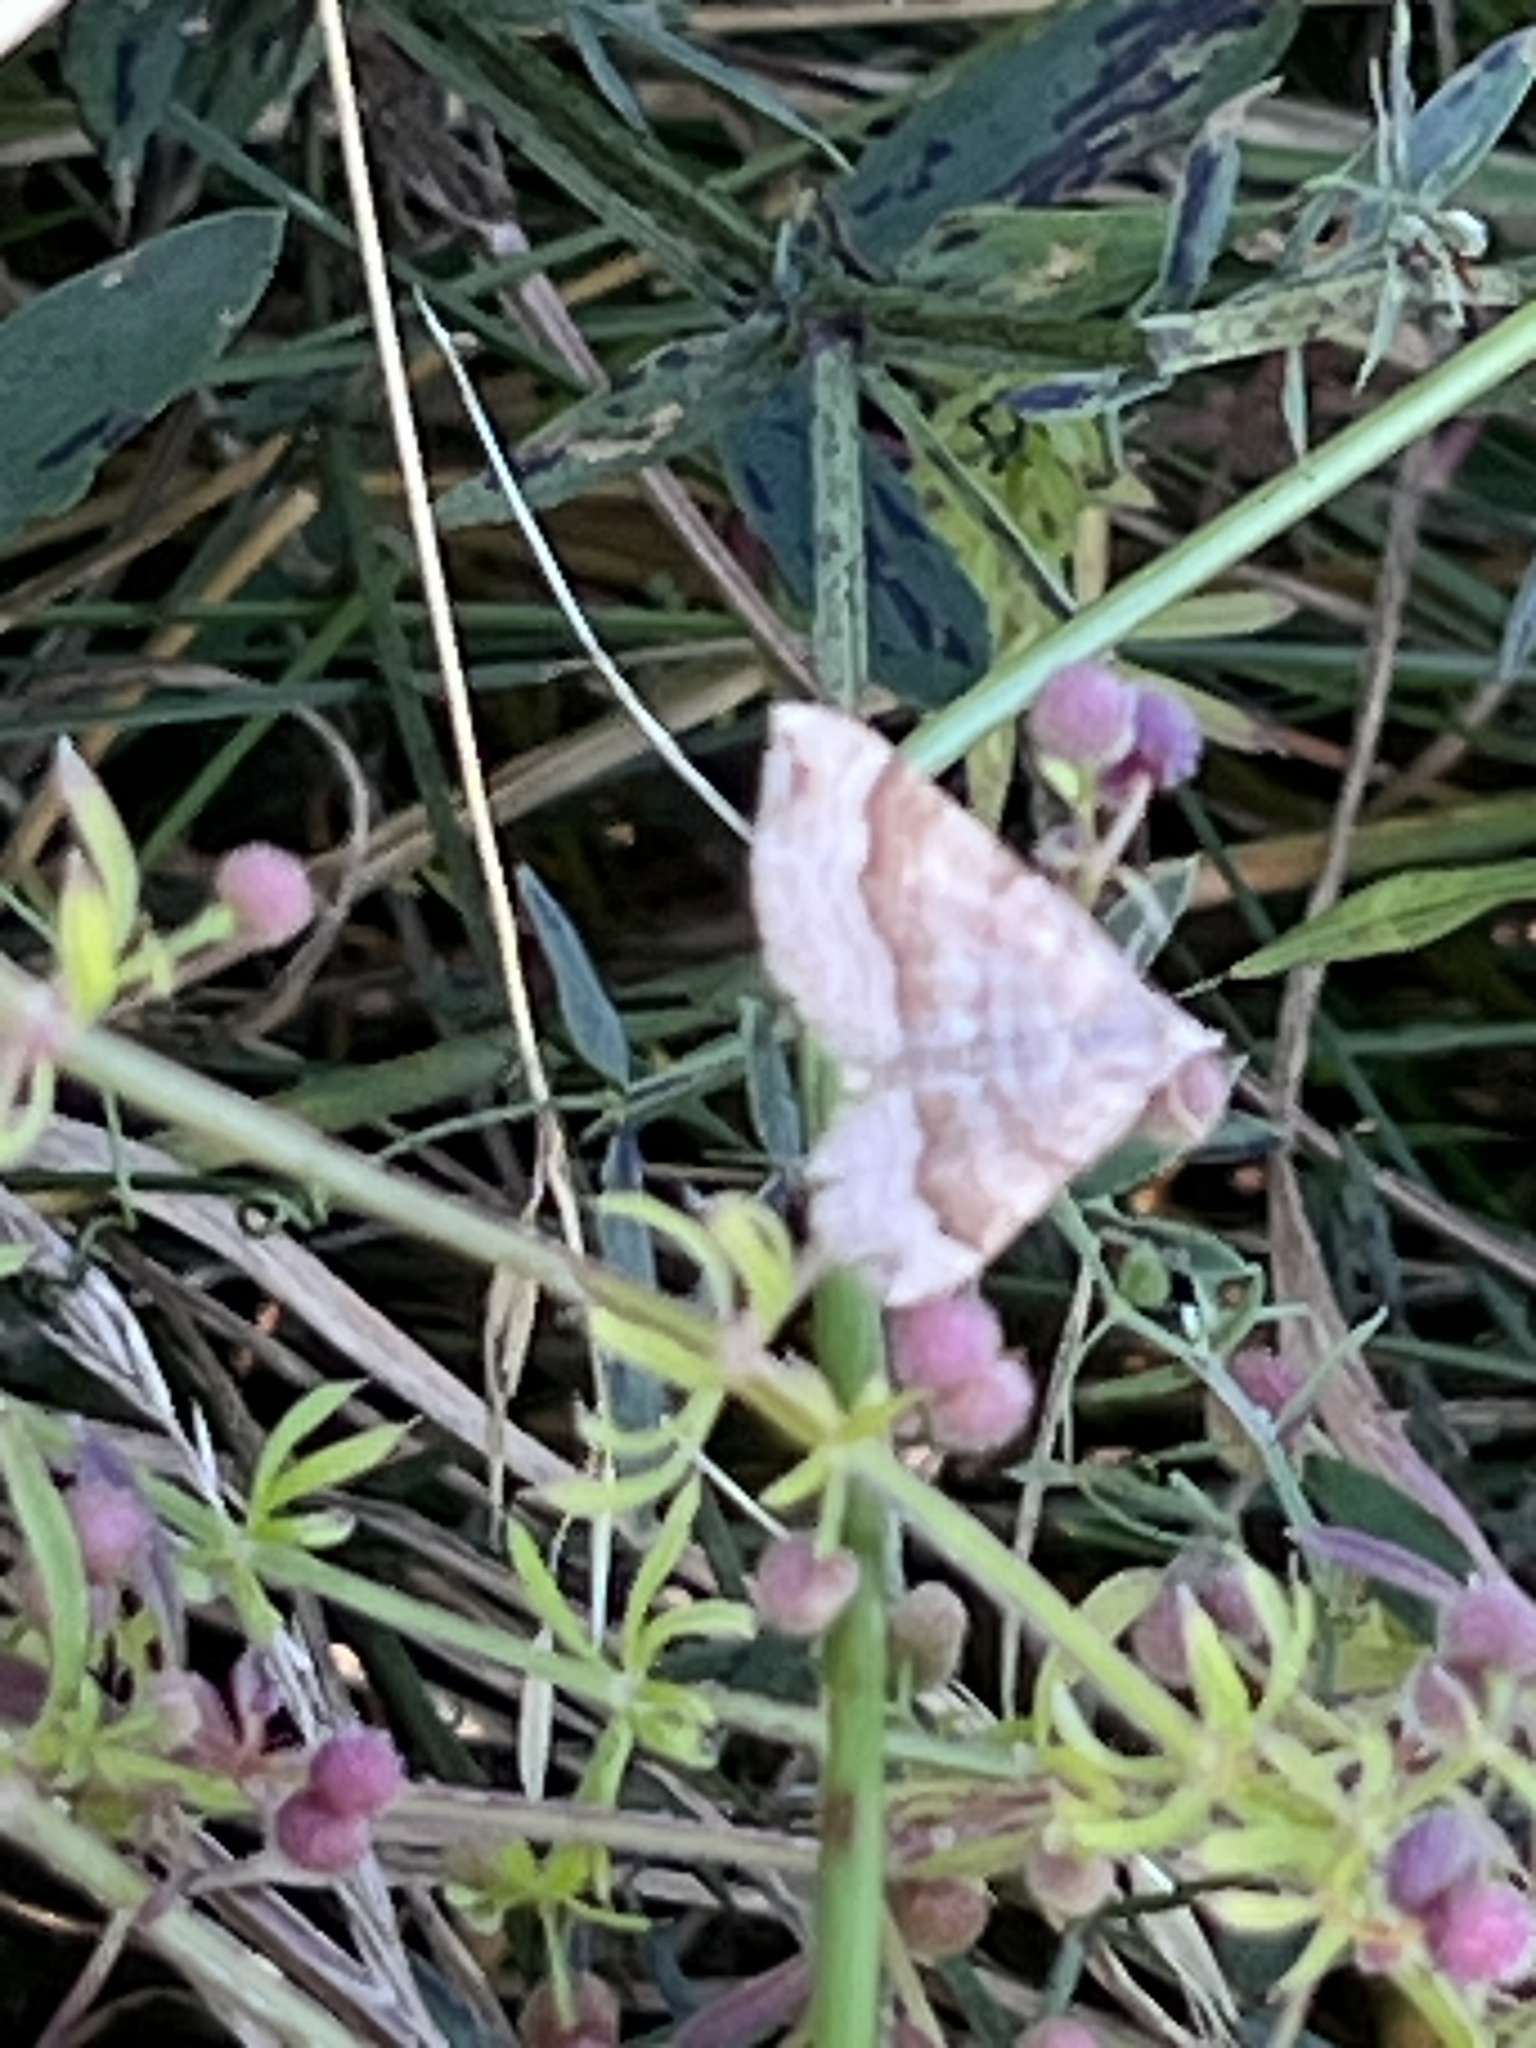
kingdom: Animalia
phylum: Arthropoda
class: Insecta
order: Lepidoptera
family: Geometridae
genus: Scotopteryx
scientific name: Scotopteryx chenopodiata
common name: Shaded broad-bar
